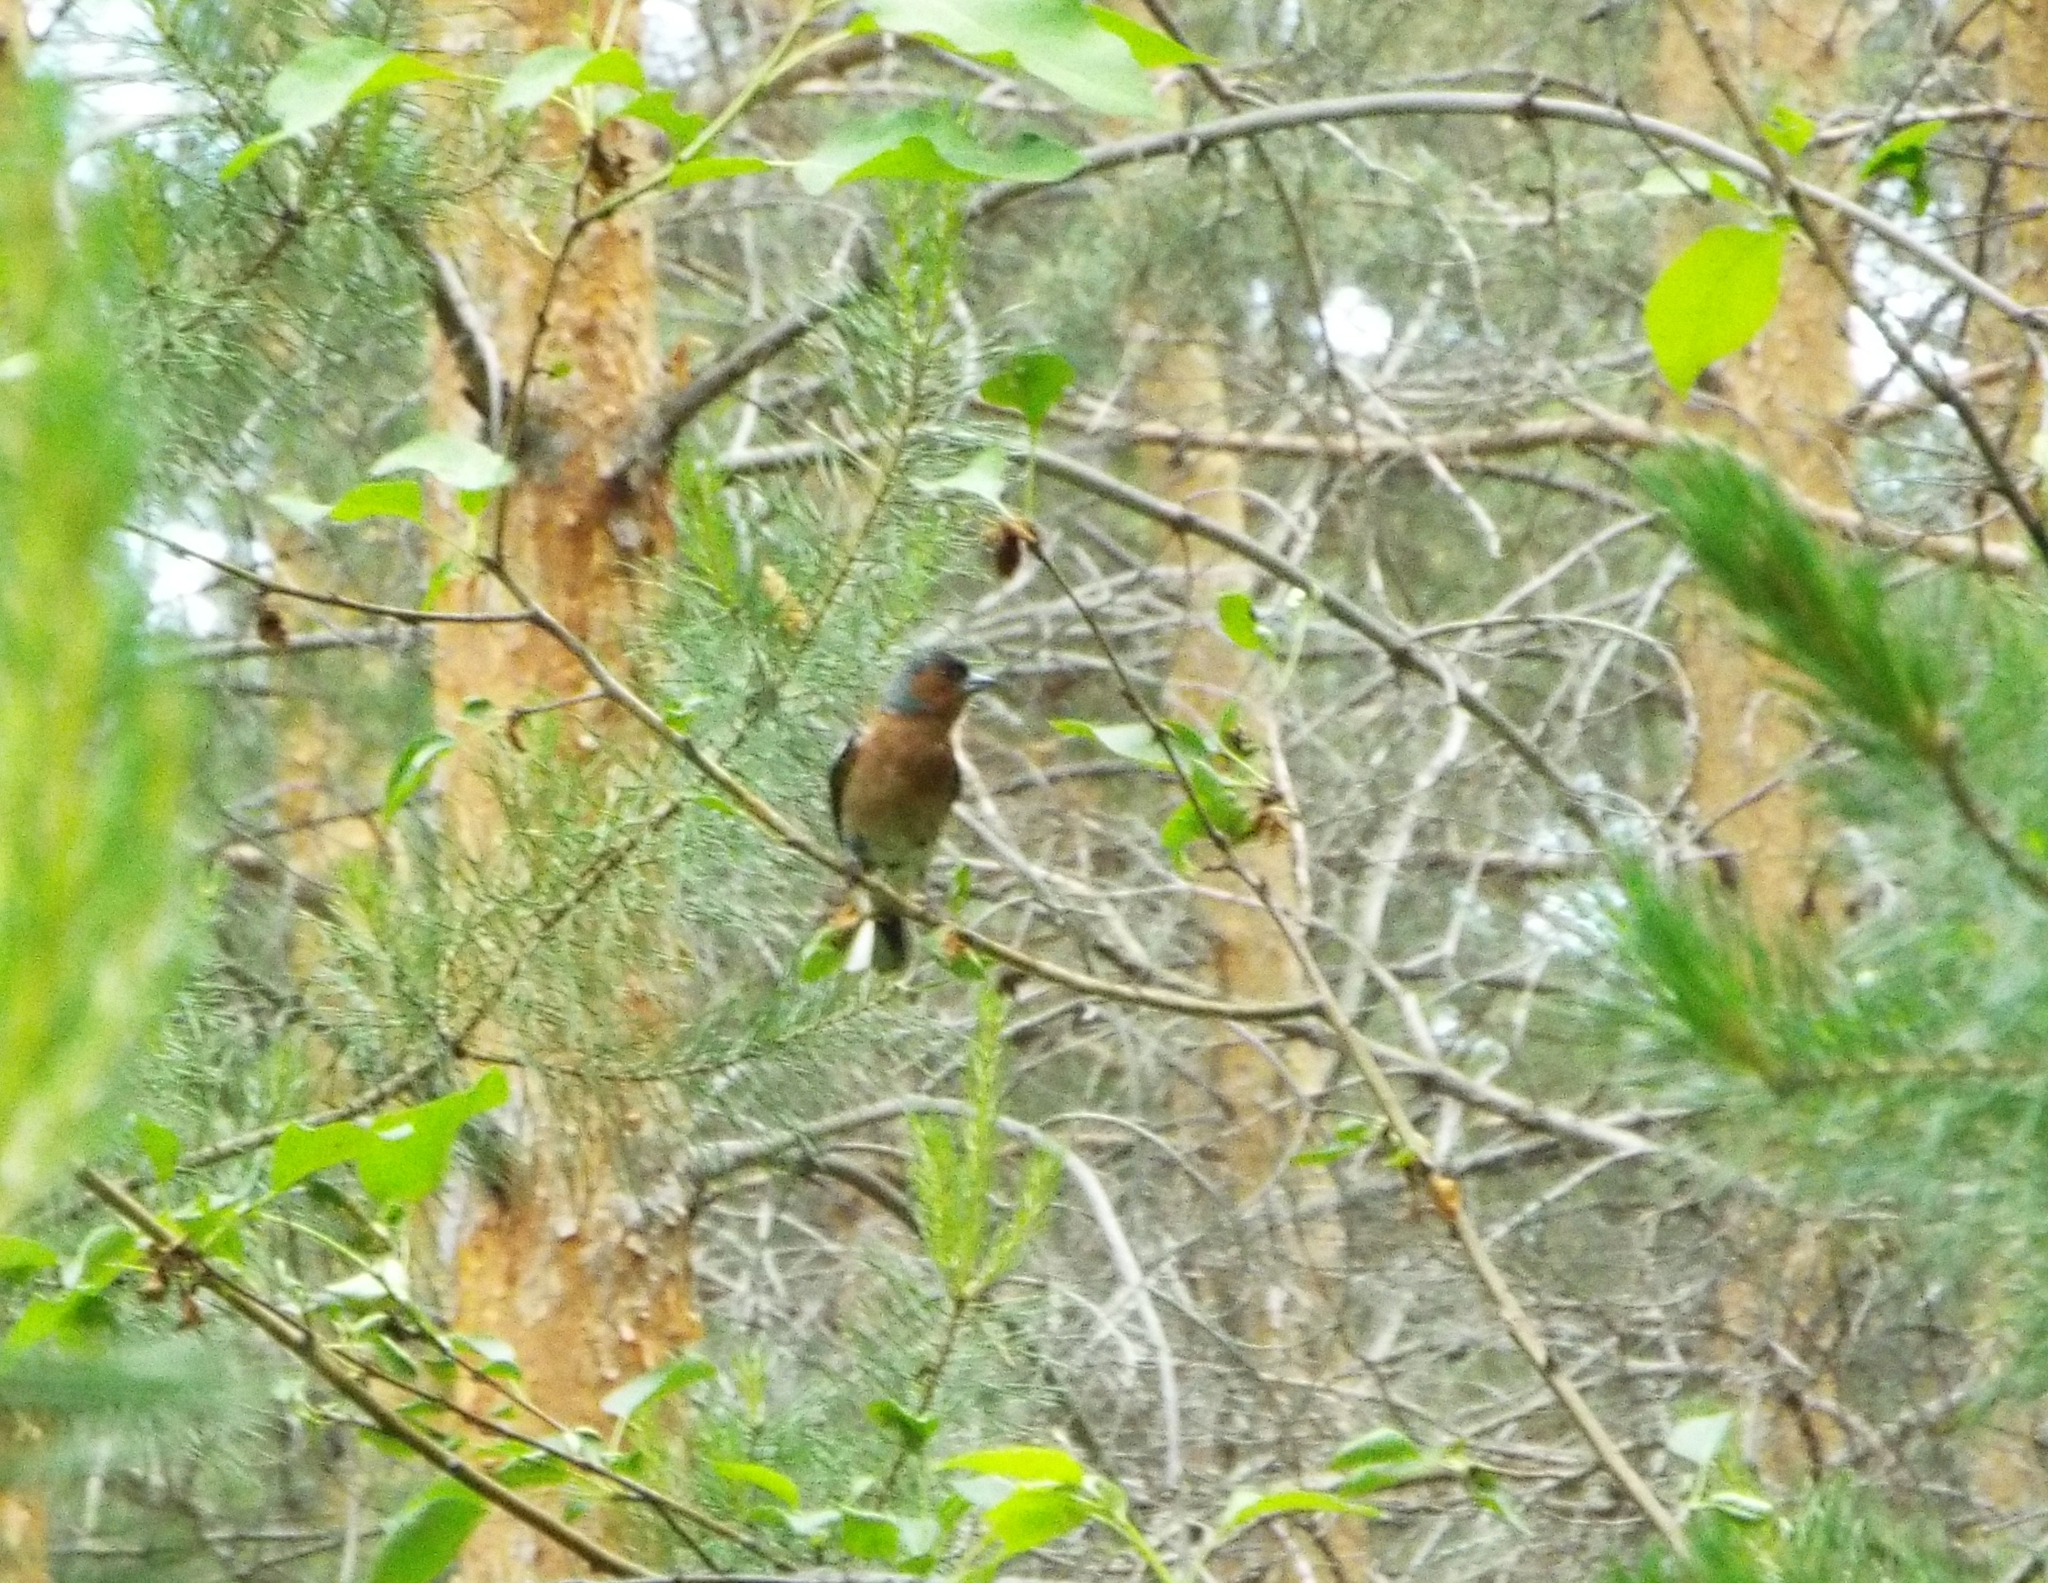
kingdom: Animalia
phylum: Chordata
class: Aves
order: Passeriformes
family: Fringillidae
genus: Fringilla
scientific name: Fringilla coelebs
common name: Common chaffinch
